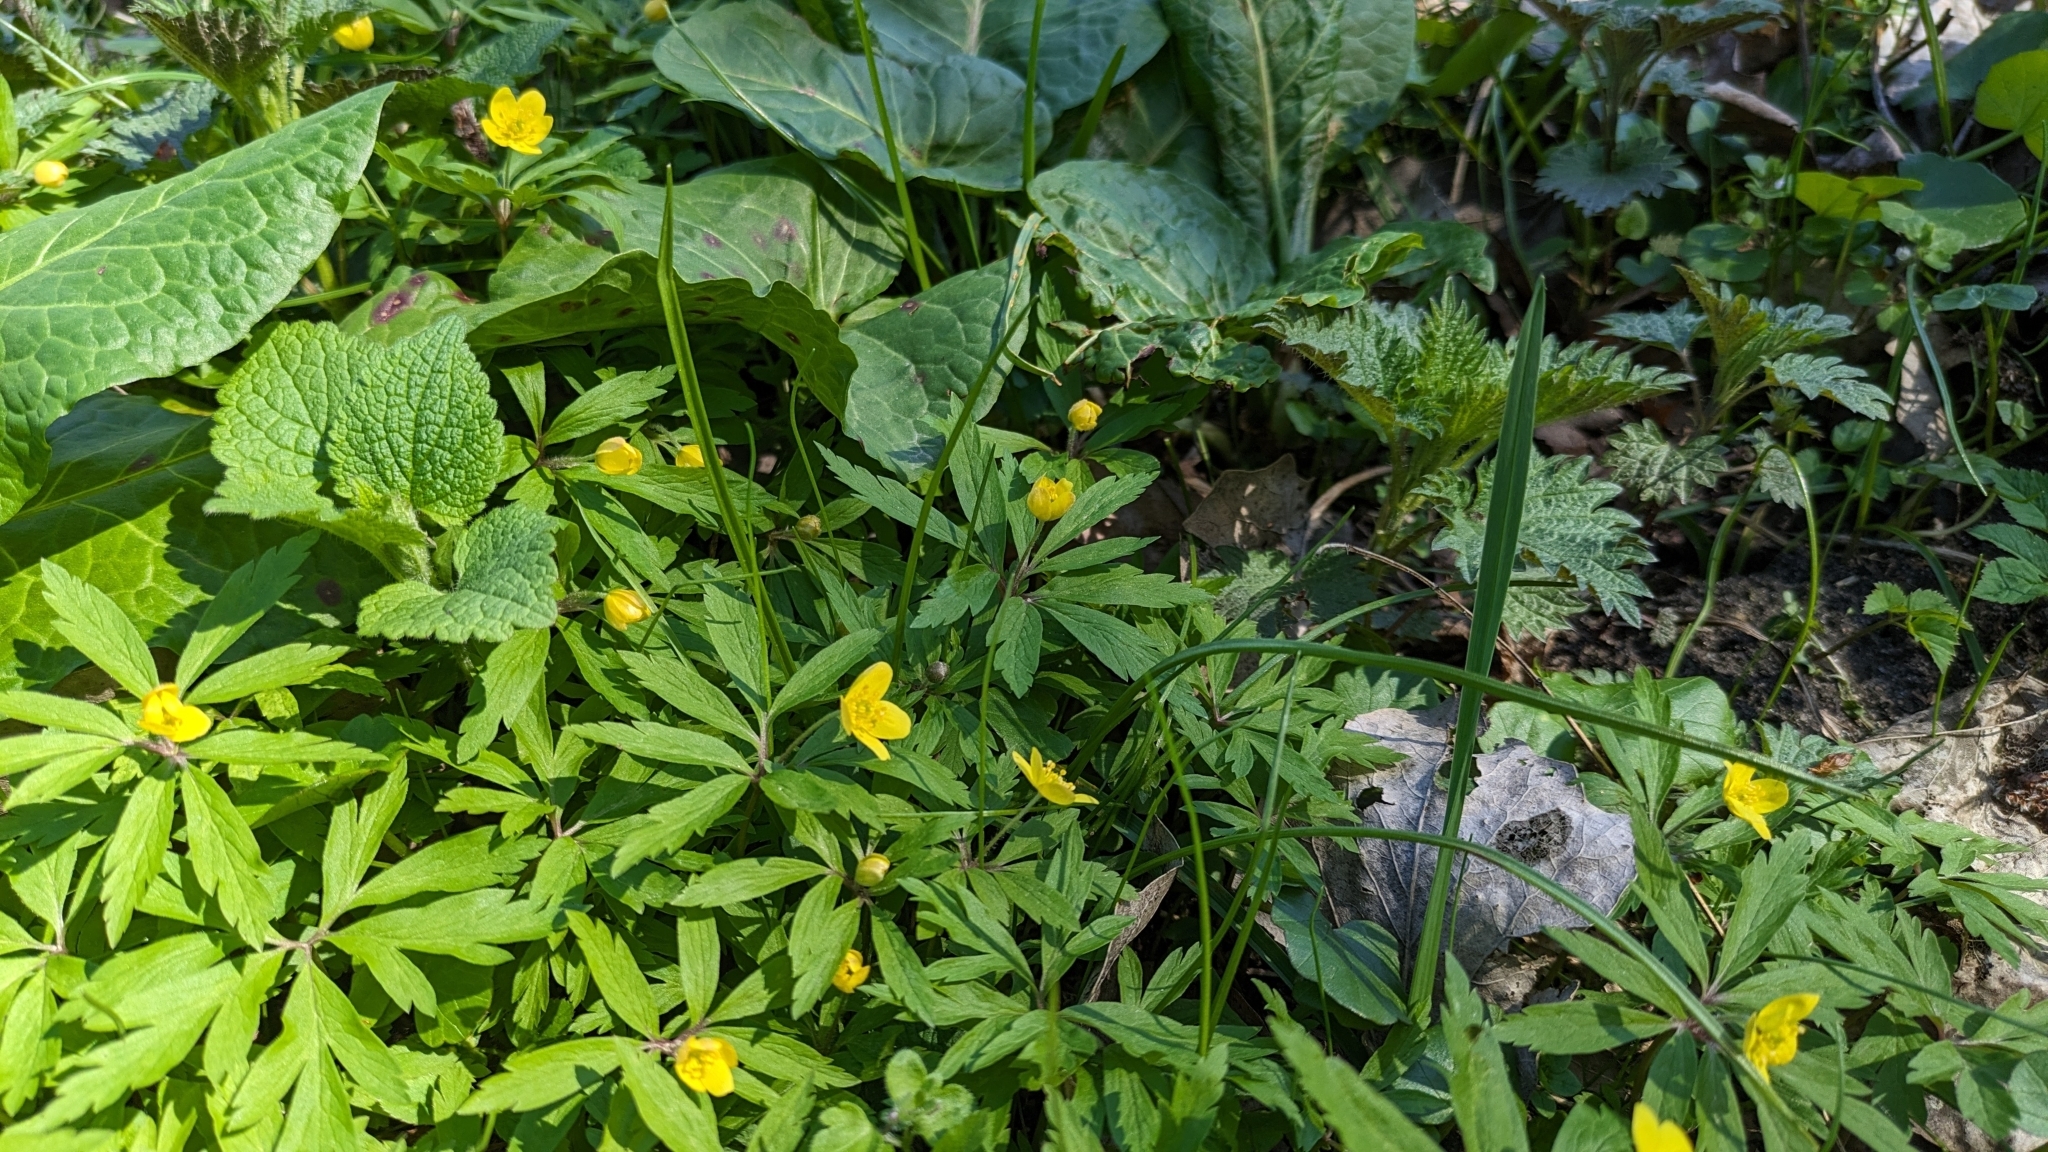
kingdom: Plantae
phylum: Tracheophyta
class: Magnoliopsida
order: Ranunculales
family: Ranunculaceae
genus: Anemone
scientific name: Anemone ranunculoides
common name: Yellow anemone
